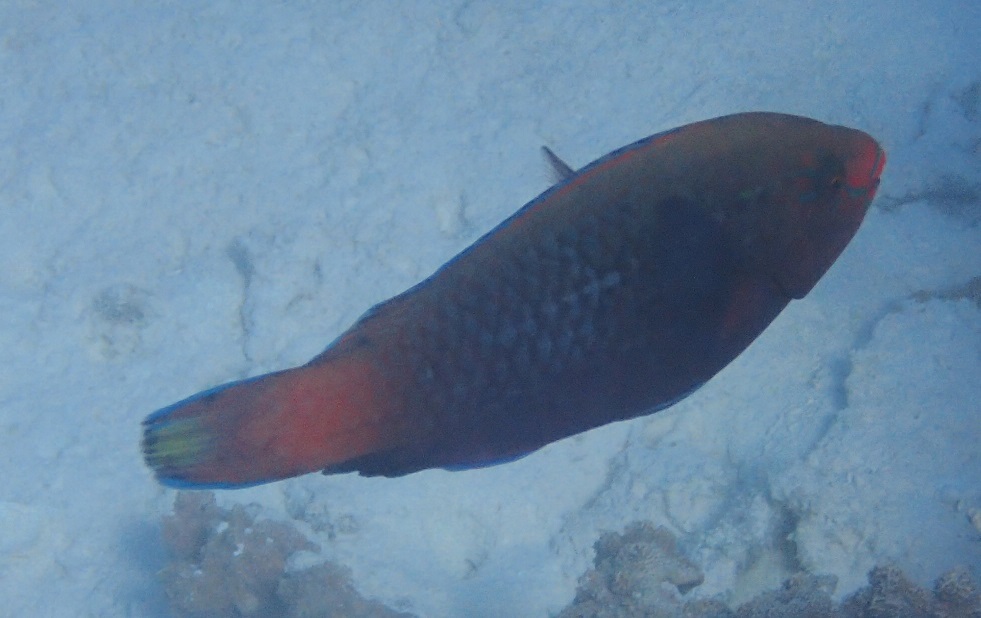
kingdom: Animalia
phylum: Chordata
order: Perciformes
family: Scaridae
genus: Scarus
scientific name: Scarus niger
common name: Dusky parrotfish
